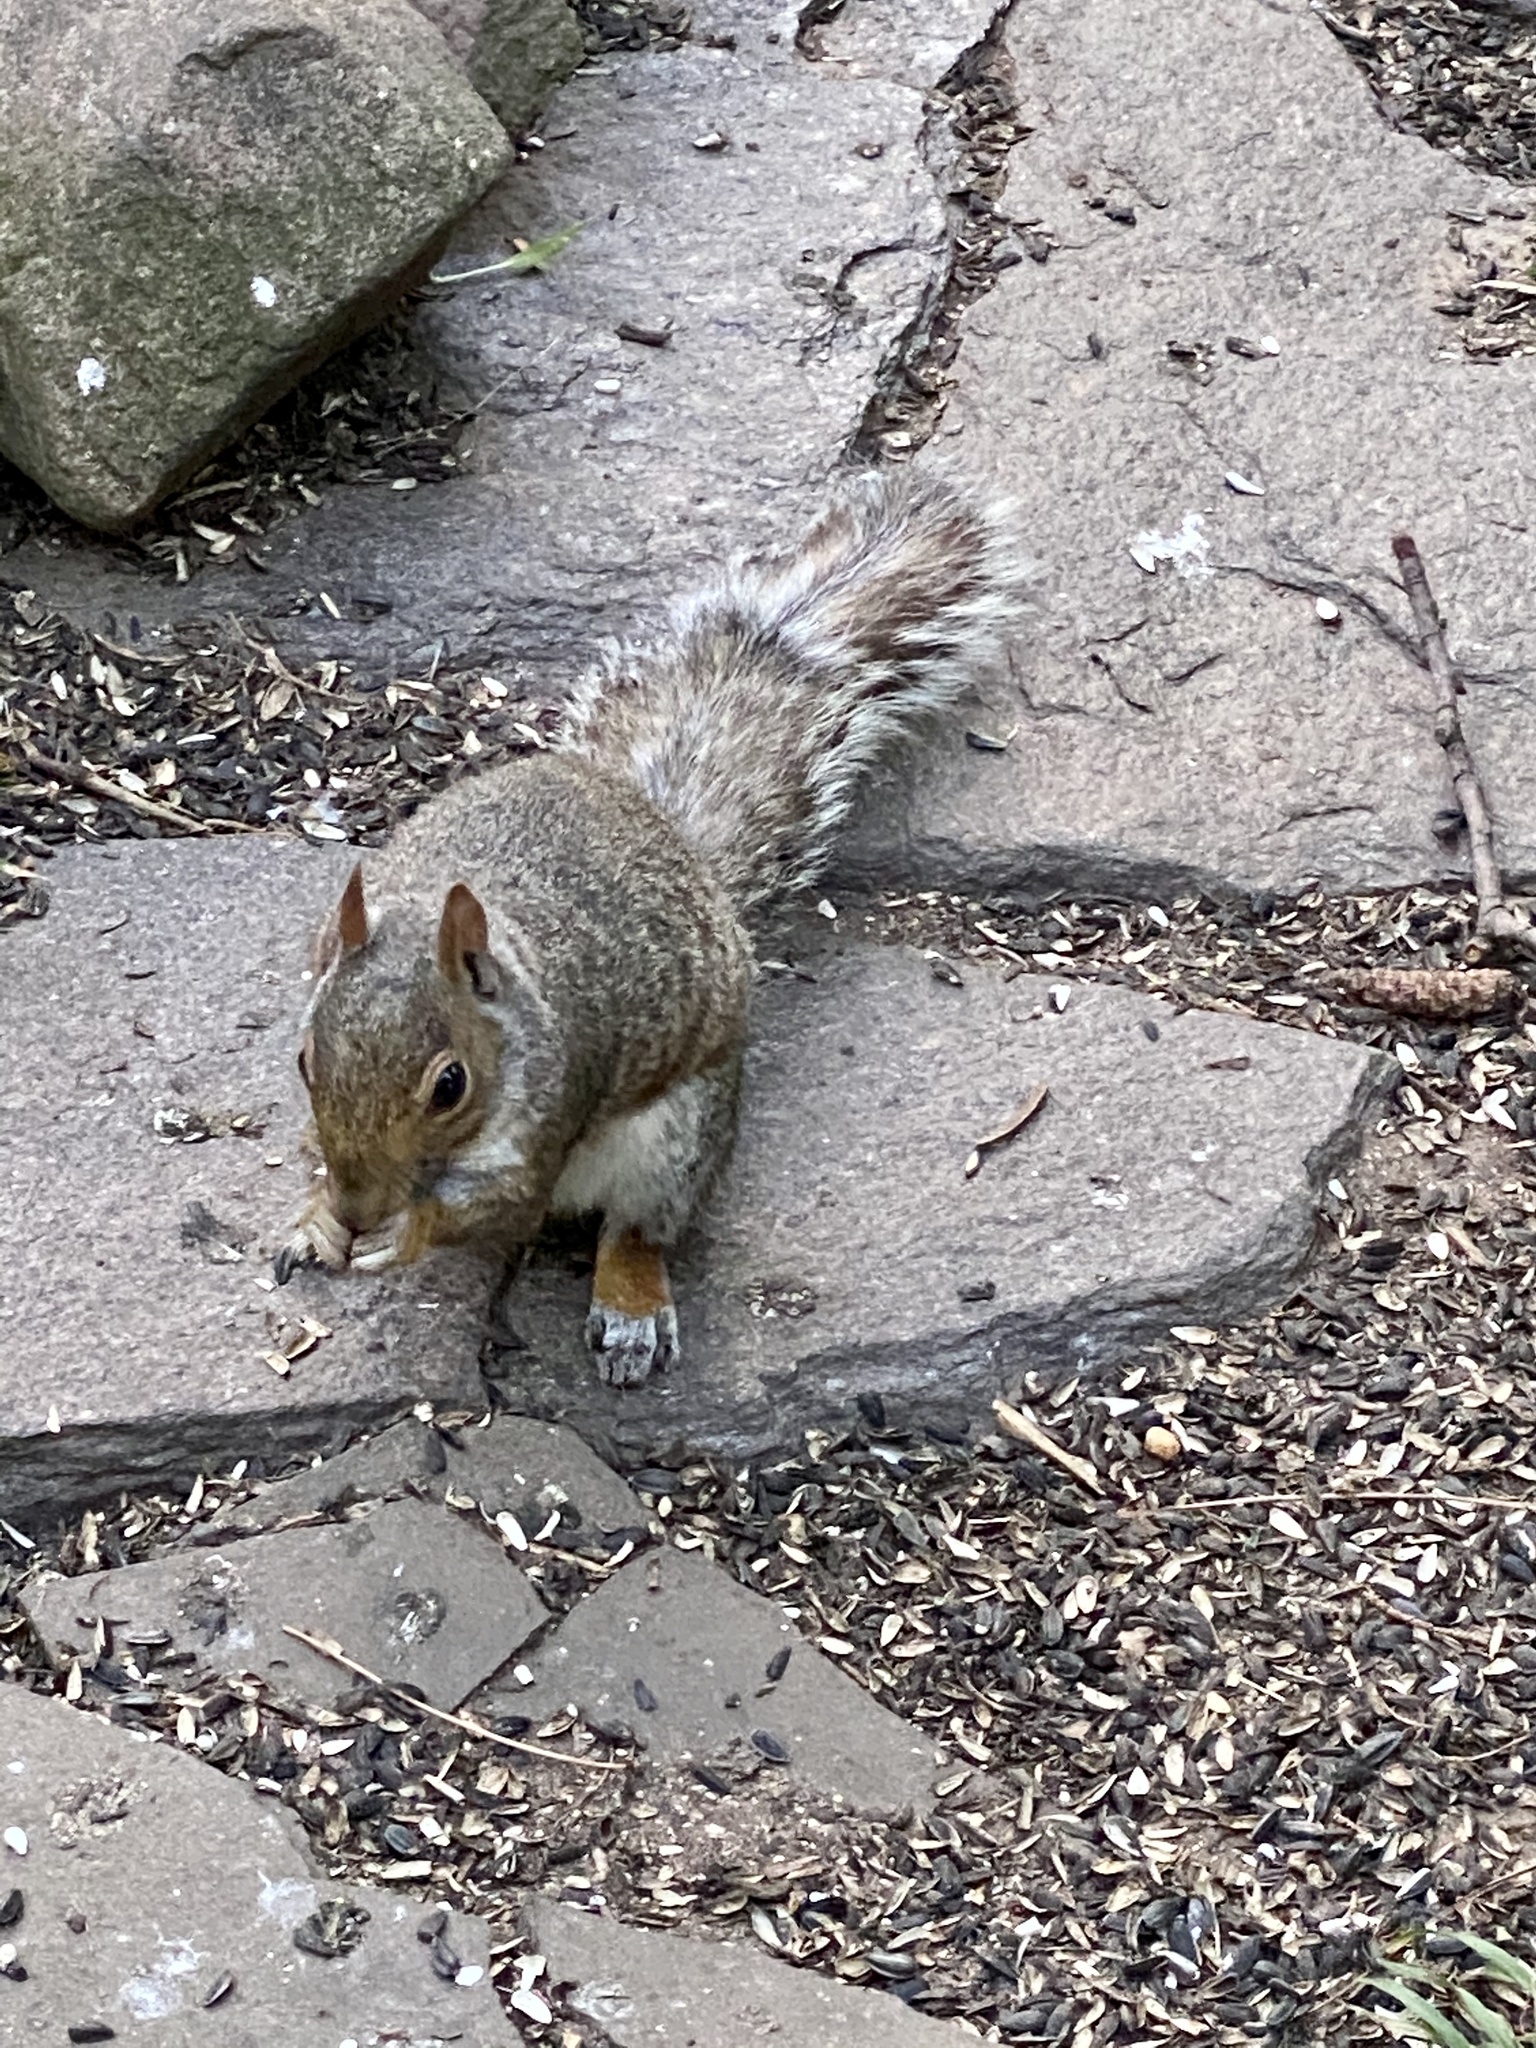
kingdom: Animalia
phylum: Chordata
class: Mammalia
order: Rodentia
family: Sciuridae
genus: Sciurus
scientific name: Sciurus carolinensis
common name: Eastern gray squirrel
